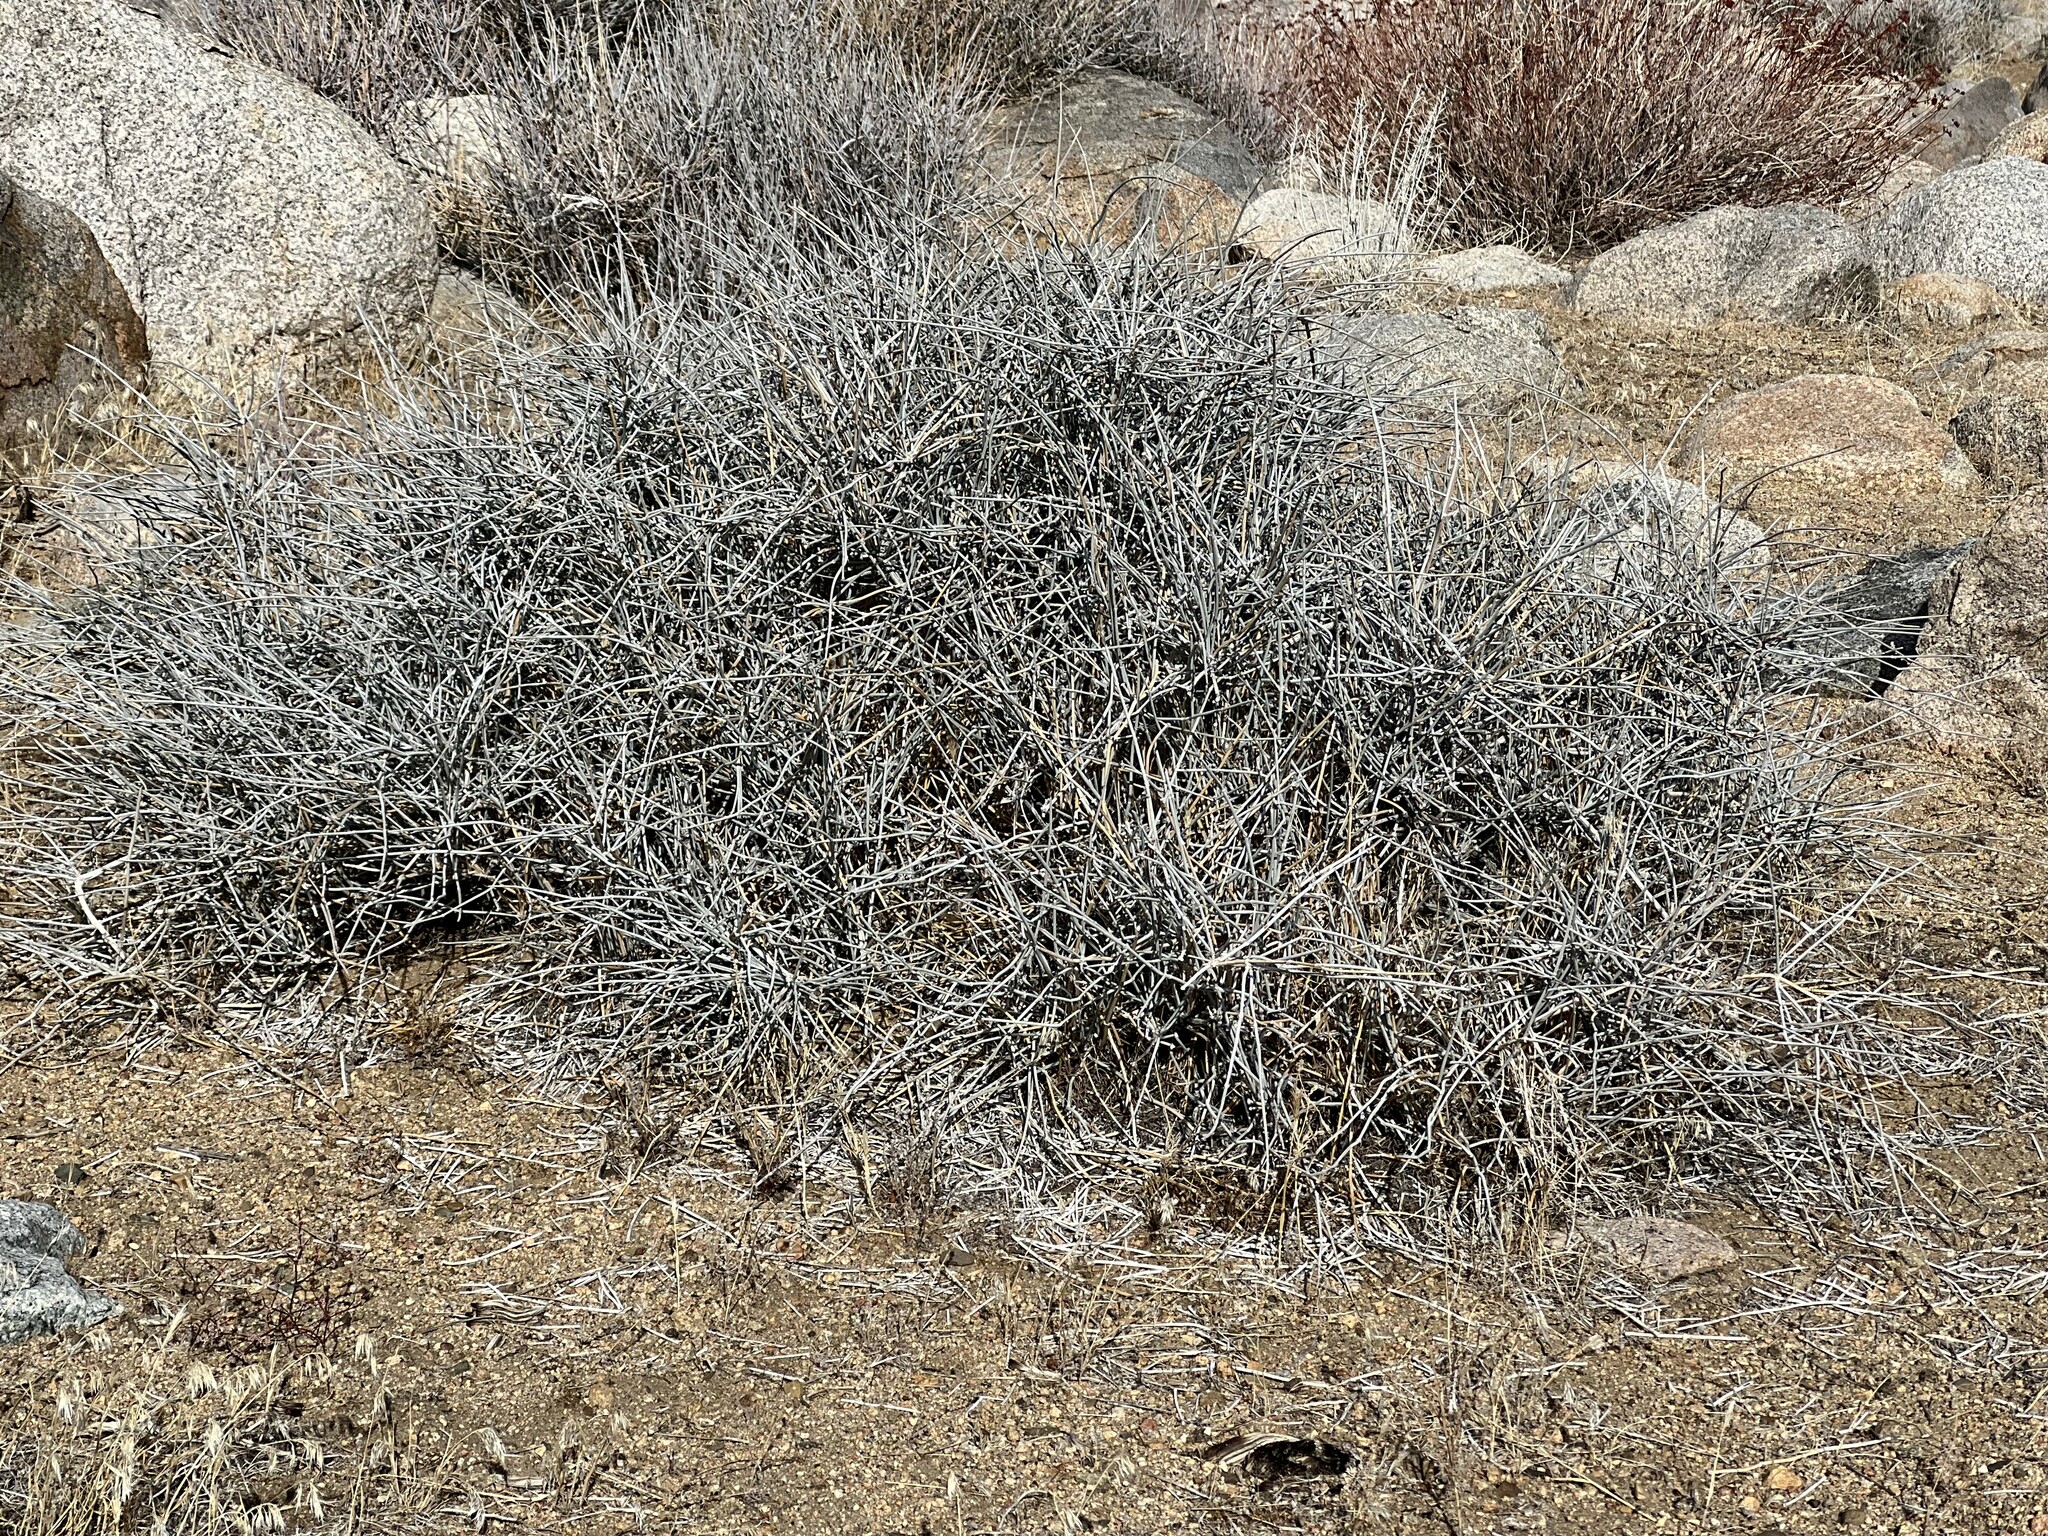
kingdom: Plantae
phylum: Tracheophyta
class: Gnetopsida
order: Ephedrales
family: Ephedraceae
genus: Ephedra
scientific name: Ephedra nevadensis
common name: Gray ephedra
